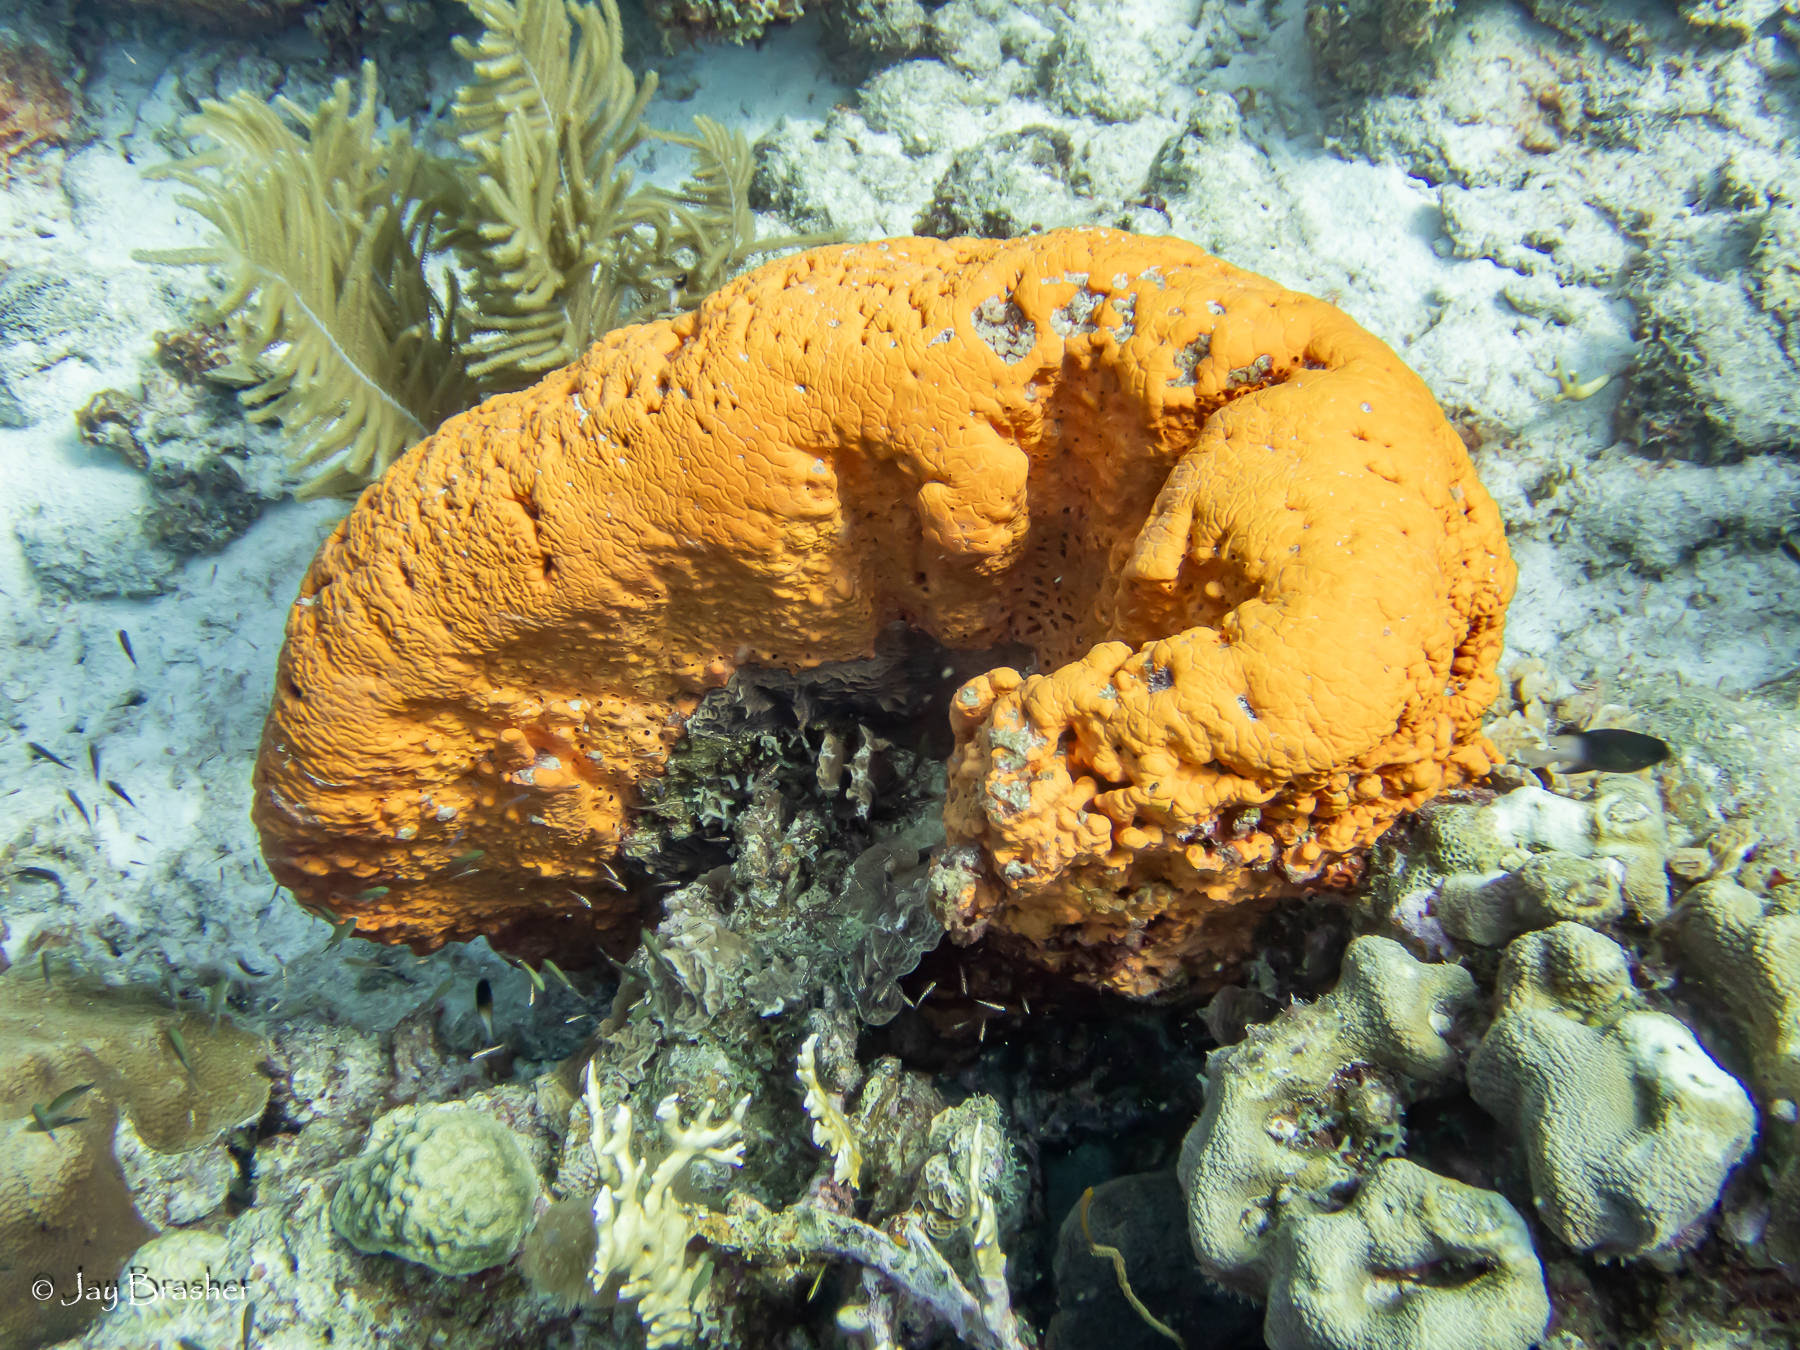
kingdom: Animalia
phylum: Porifera
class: Demospongiae
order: Agelasida
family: Agelasidae
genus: Agelas
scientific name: Agelas clathrodes
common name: Orange elephant ear sponge
